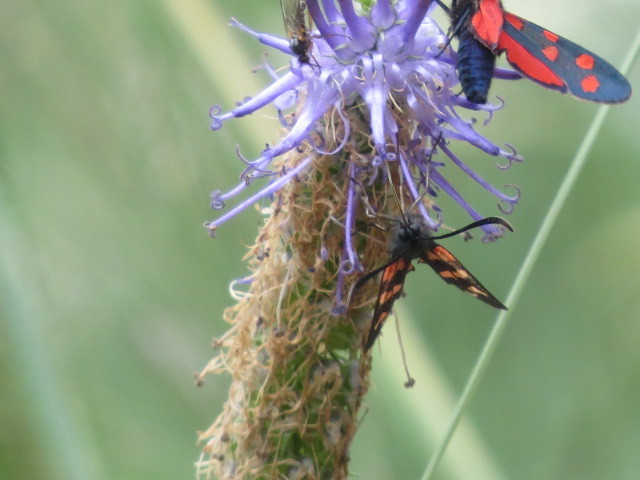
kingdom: Animalia
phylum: Arthropoda
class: Insecta
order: Lepidoptera
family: Zygaenidae
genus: Zygaena
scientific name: Zygaena transalpina
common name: Southern six spot burnet
